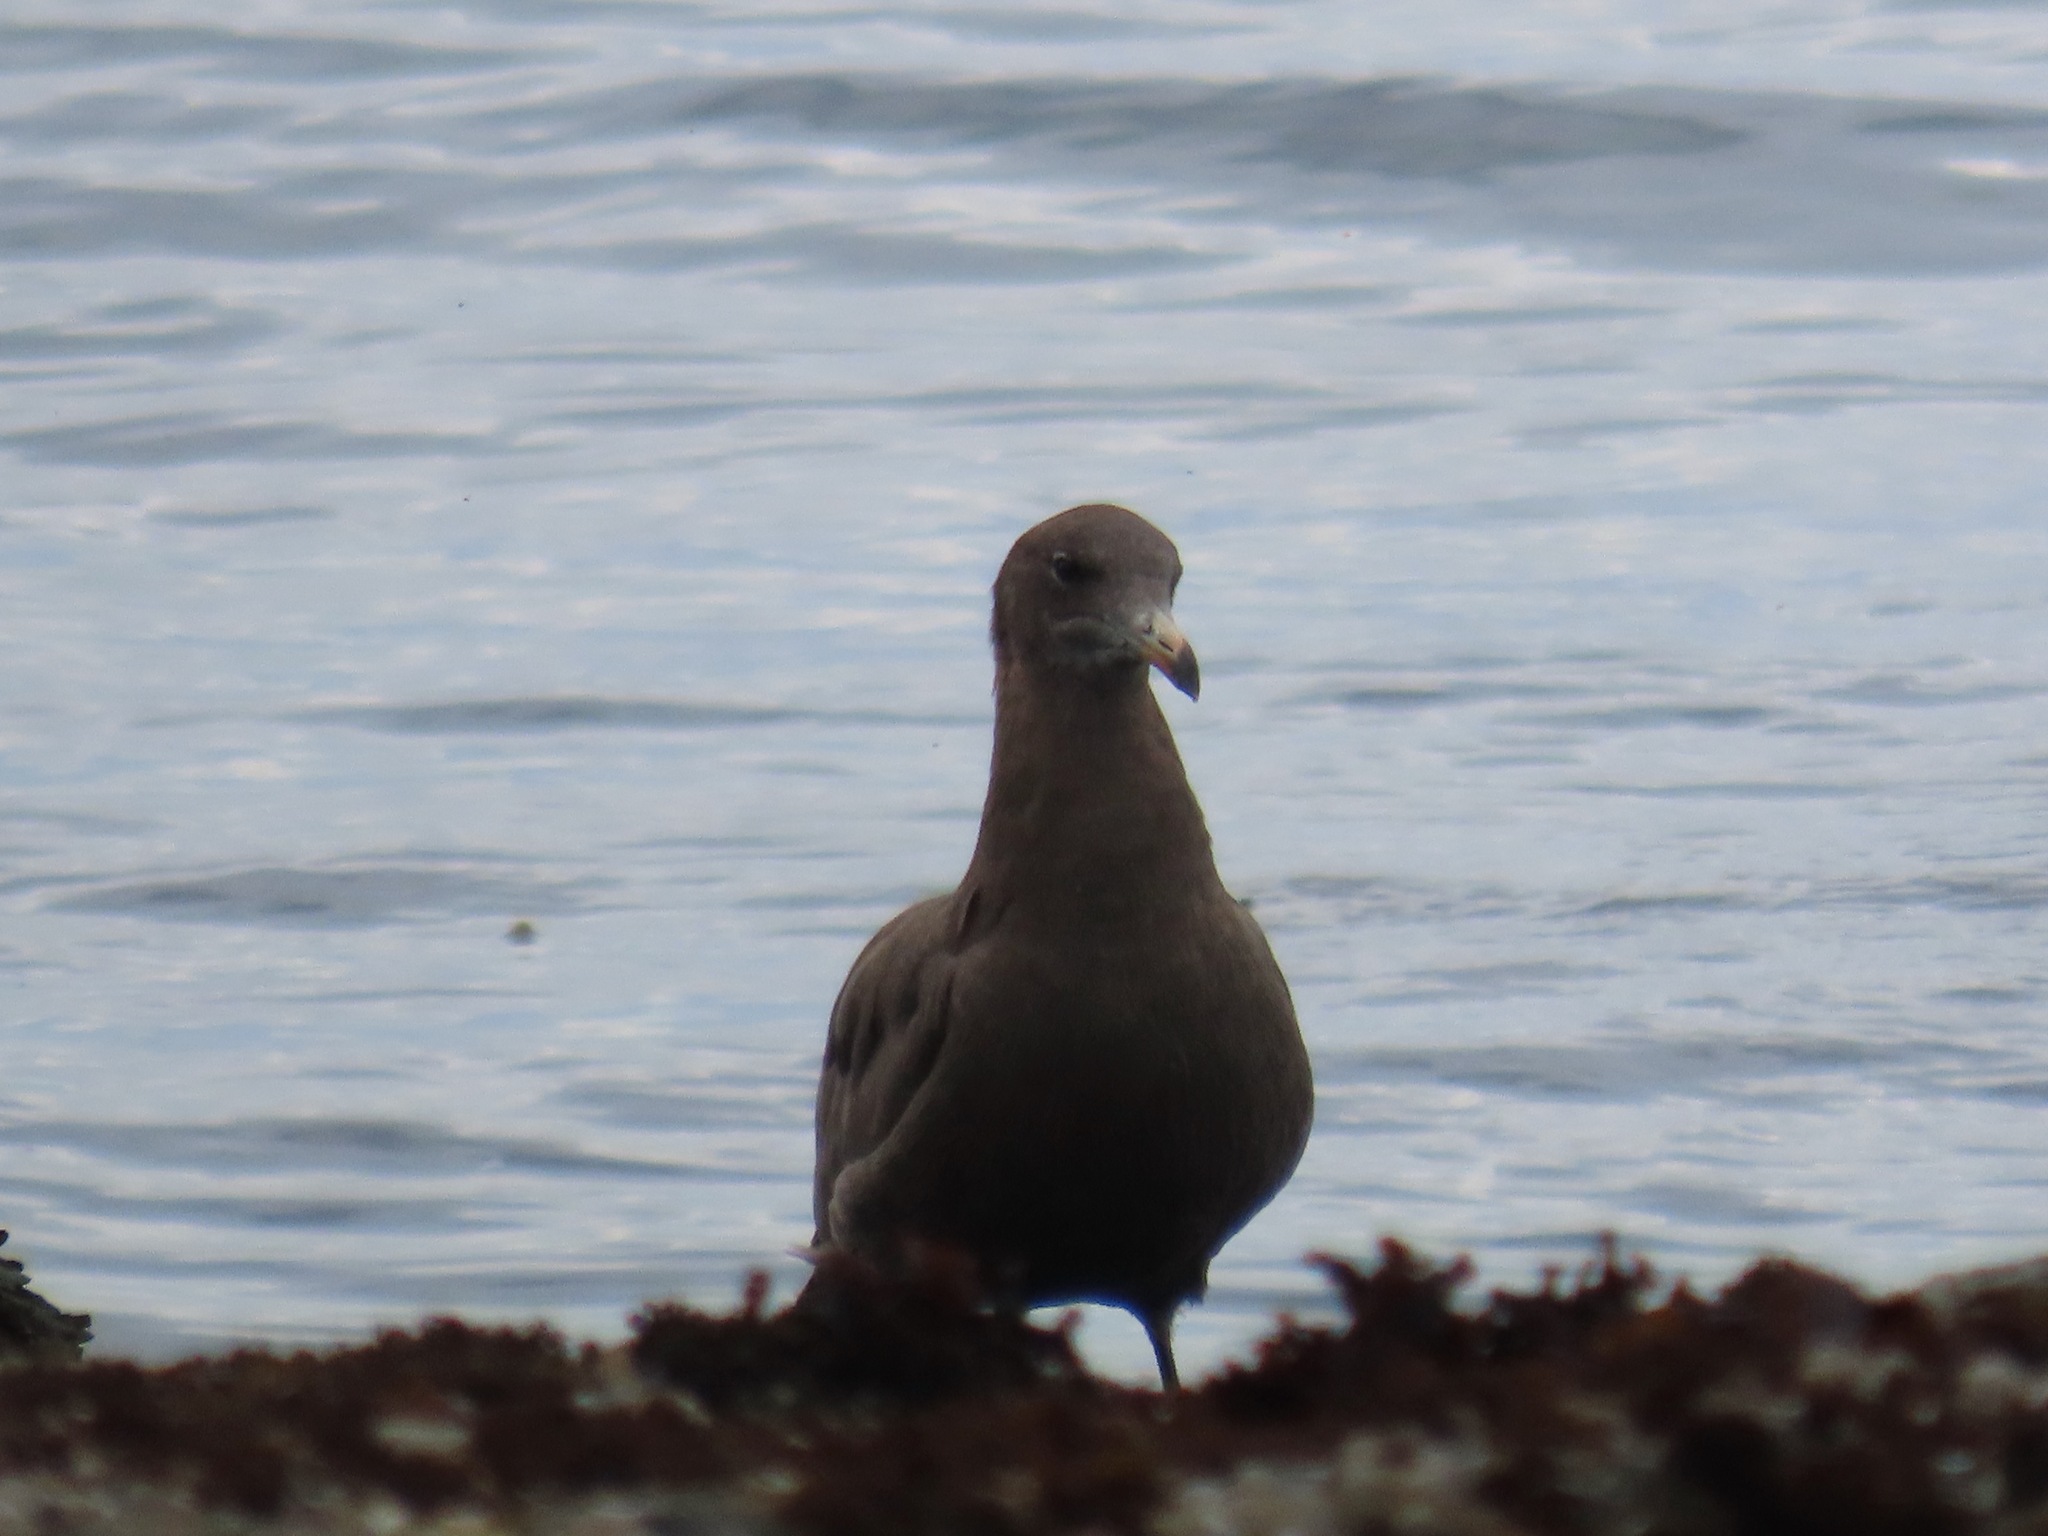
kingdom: Animalia
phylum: Chordata
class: Aves
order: Charadriiformes
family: Laridae
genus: Larus
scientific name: Larus heermanni
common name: Heermann's gull
